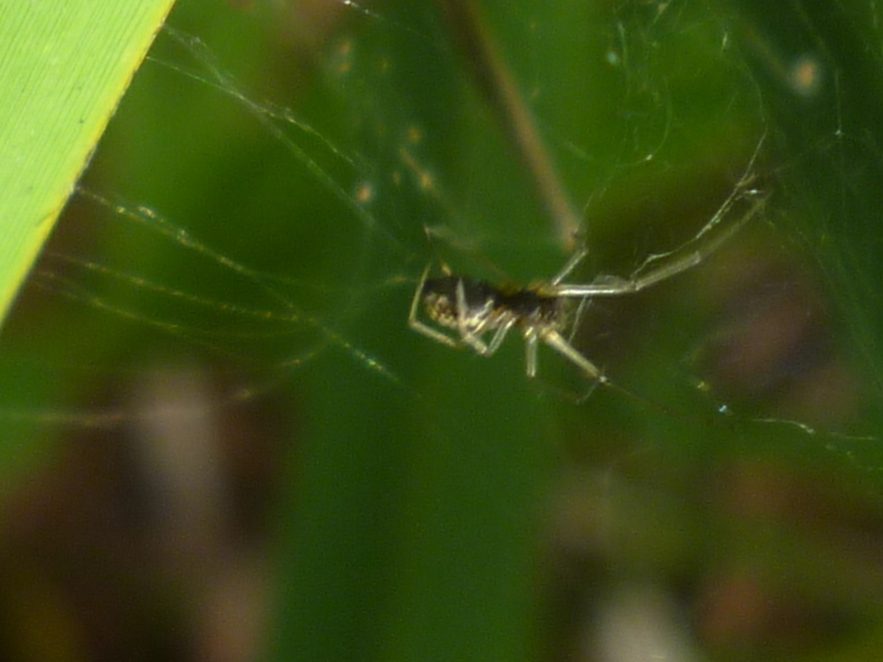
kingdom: Animalia
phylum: Arthropoda
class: Arachnida
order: Araneae
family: Linyphiidae
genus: Frontinella
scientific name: Frontinella pyramitela
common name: Bowl-and-doily spider
